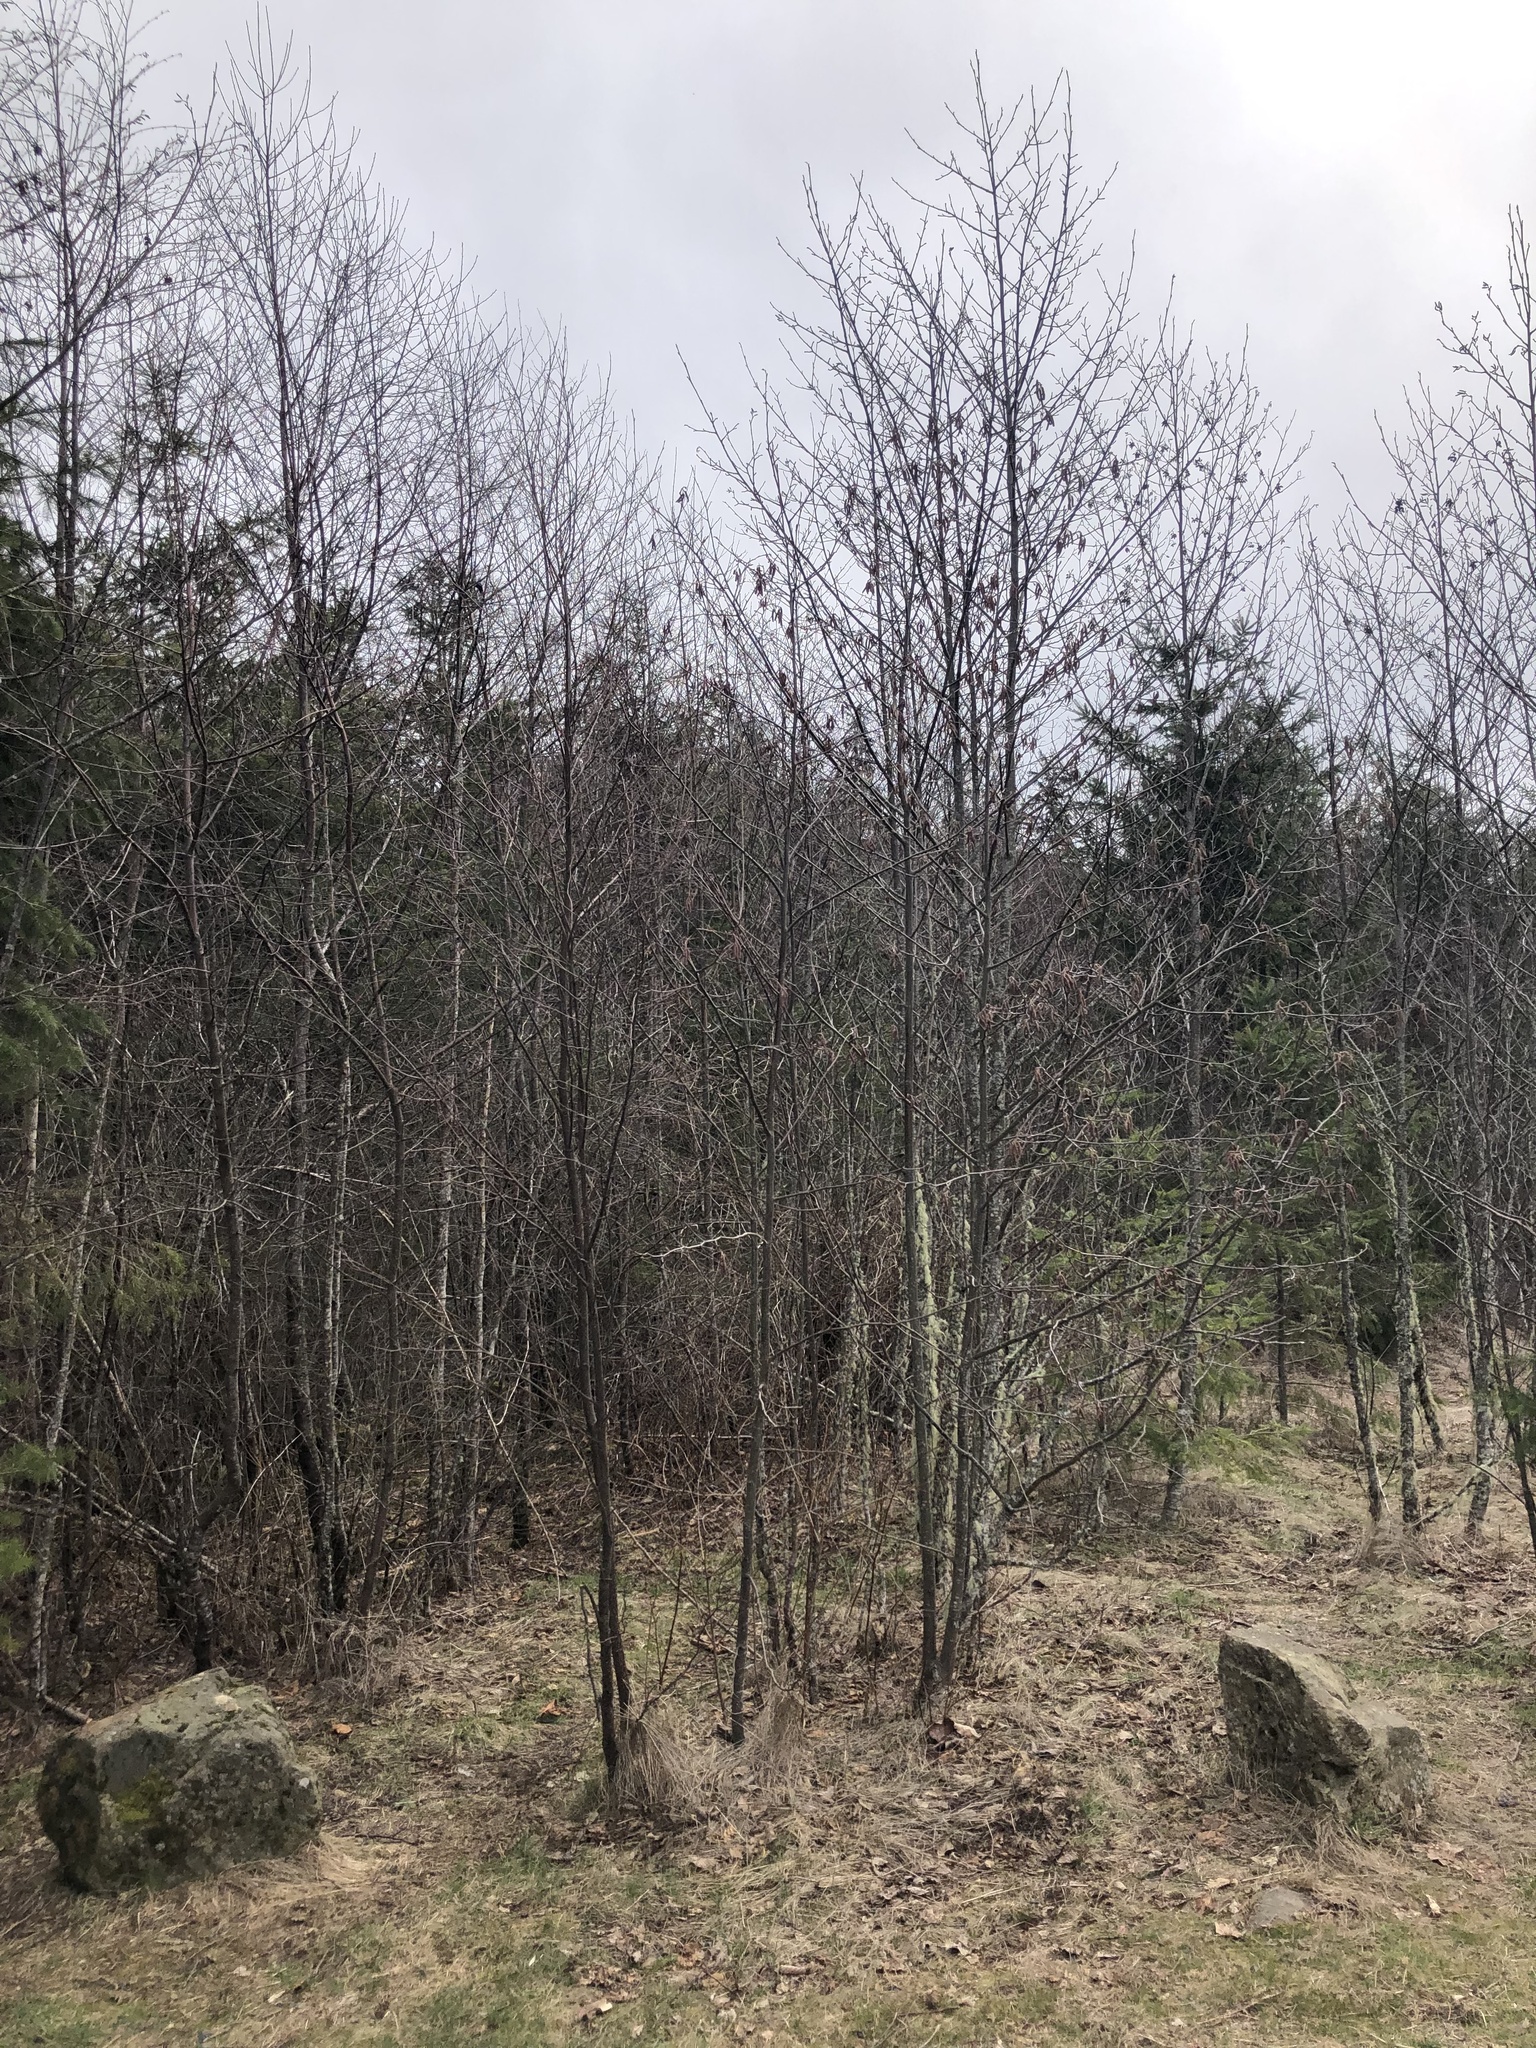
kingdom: Plantae
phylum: Tracheophyta
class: Magnoliopsida
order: Fagales
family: Betulaceae
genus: Alnus
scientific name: Alnus rubra
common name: Red alder
